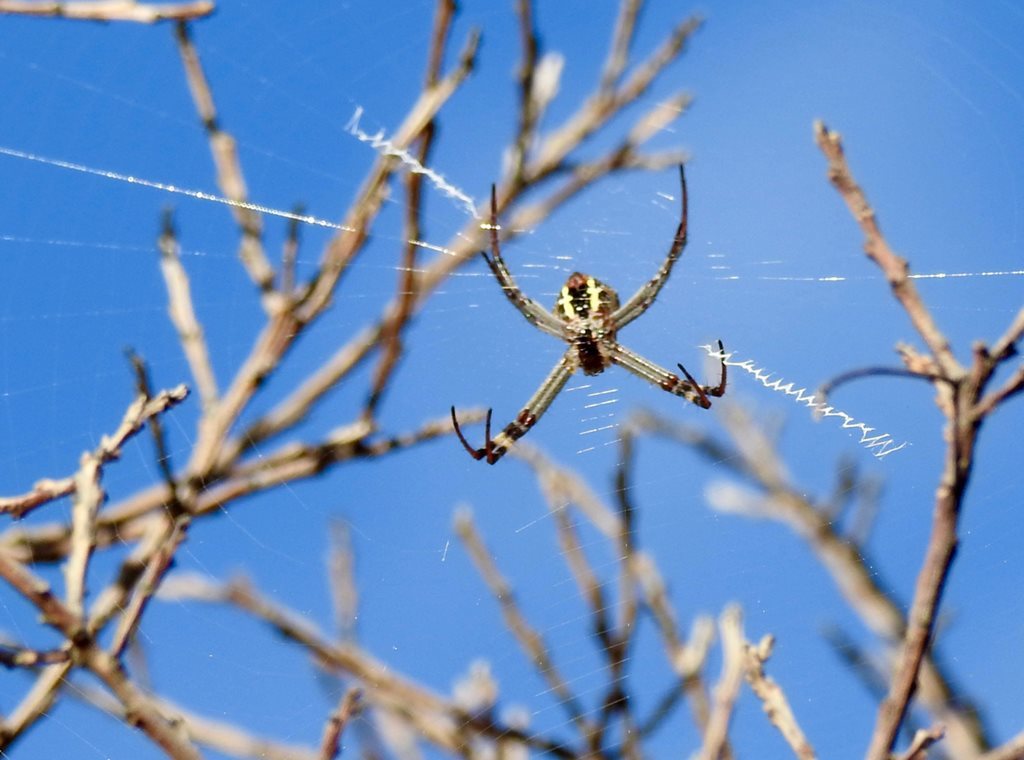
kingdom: Animalia
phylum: Arthropoda
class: Arachnida
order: Araneae
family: Araneidae
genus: Argiope
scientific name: Argiope keyserlingi
